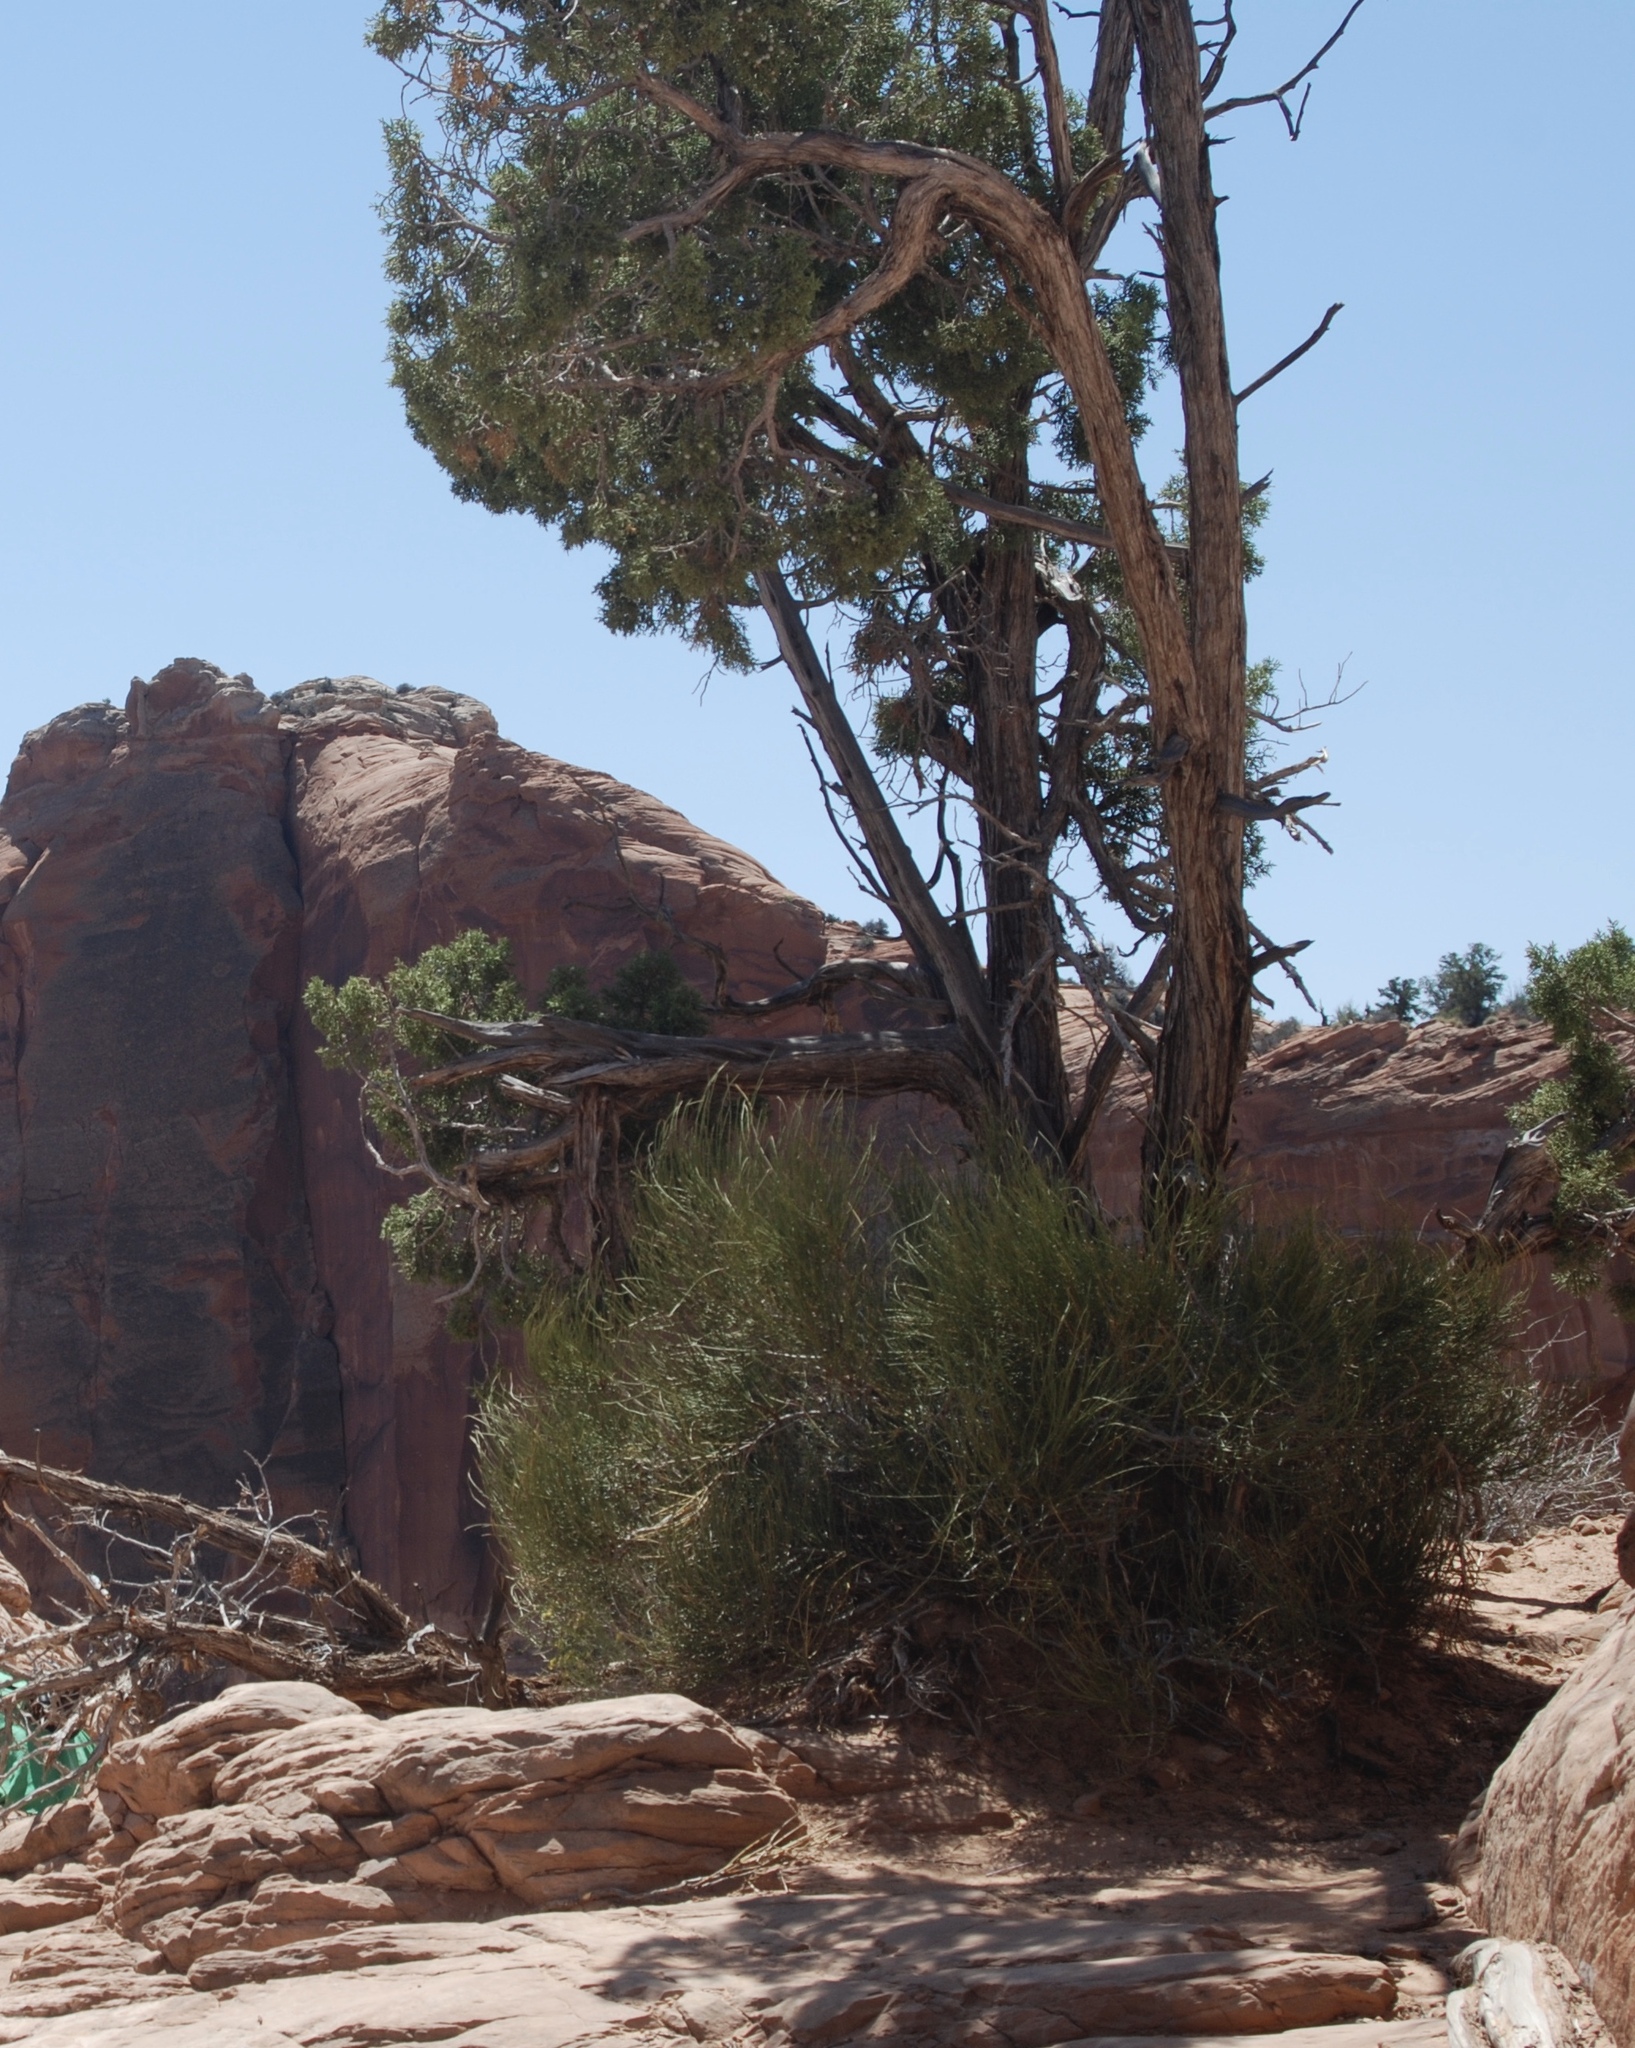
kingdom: Plantae
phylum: Tracheophyta
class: Pinopsida
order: Pinales
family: Cupressaceae
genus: Juniperus
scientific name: Juniperus osteosperma
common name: Utah juniper
